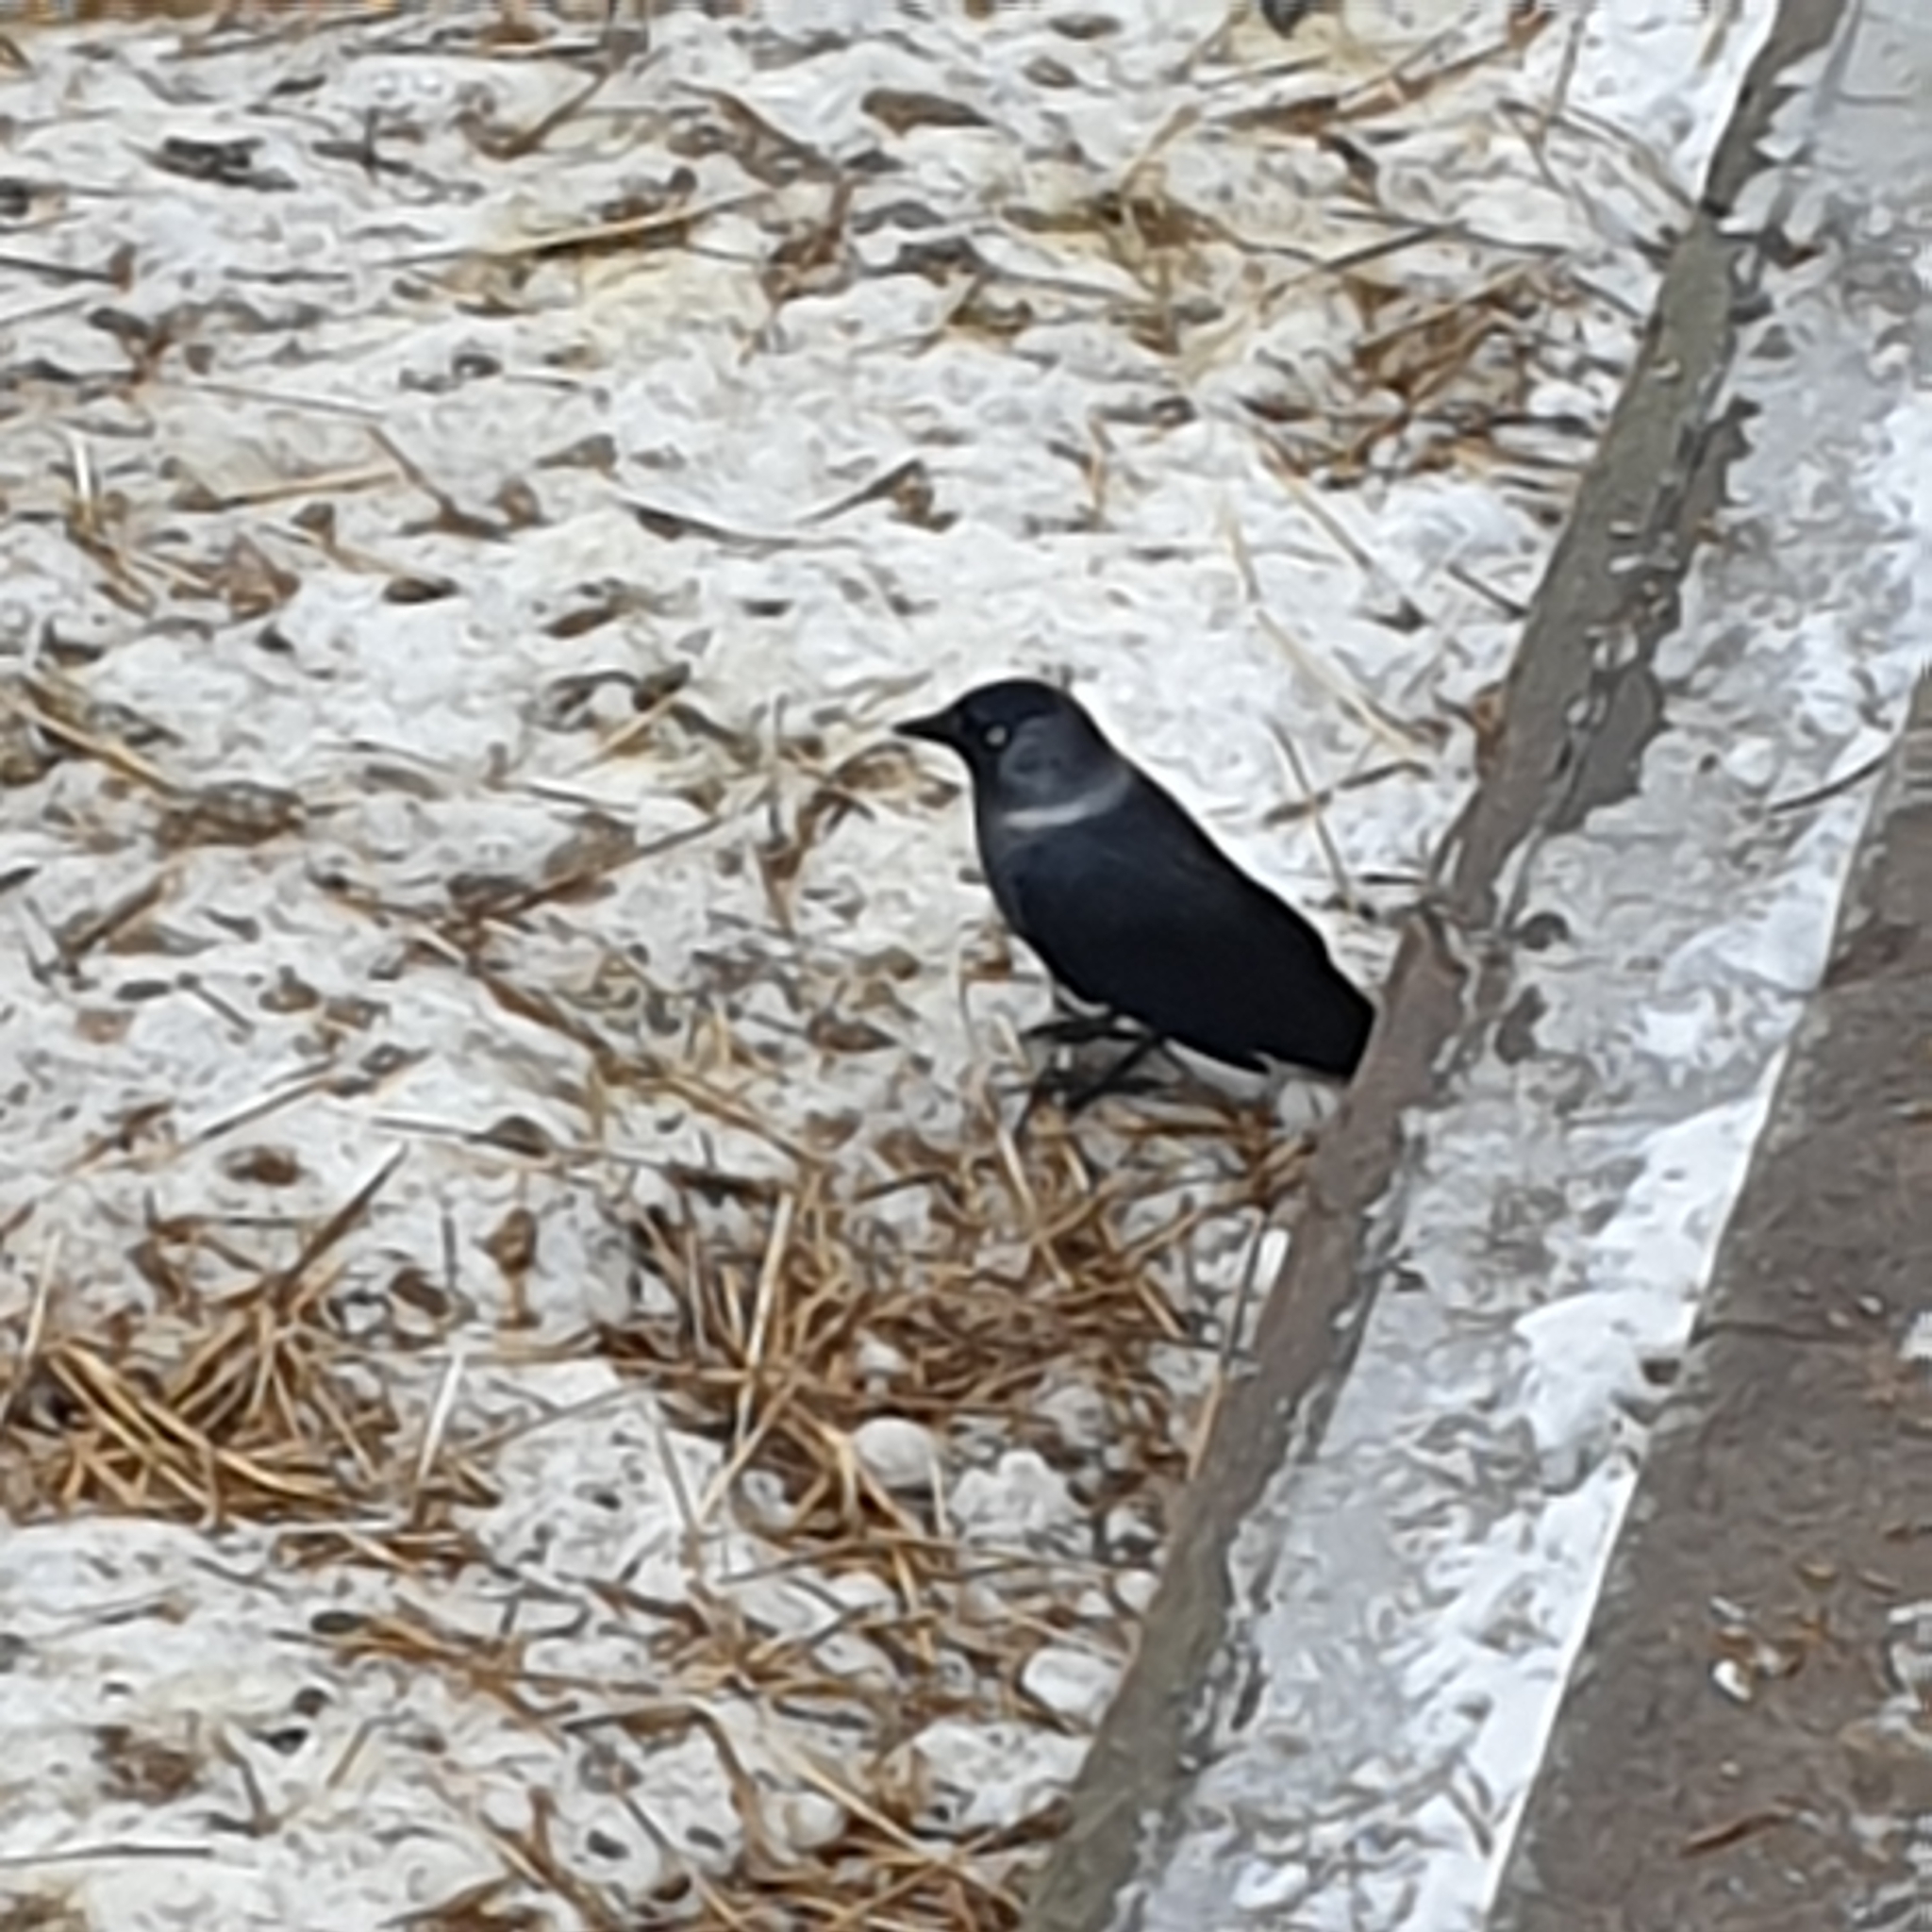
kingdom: Animalia
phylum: Chordata
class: Aves
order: Passeriformes
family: Corvidae
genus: Coloeus
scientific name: Coloeus monedula
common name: Western jackdaw
